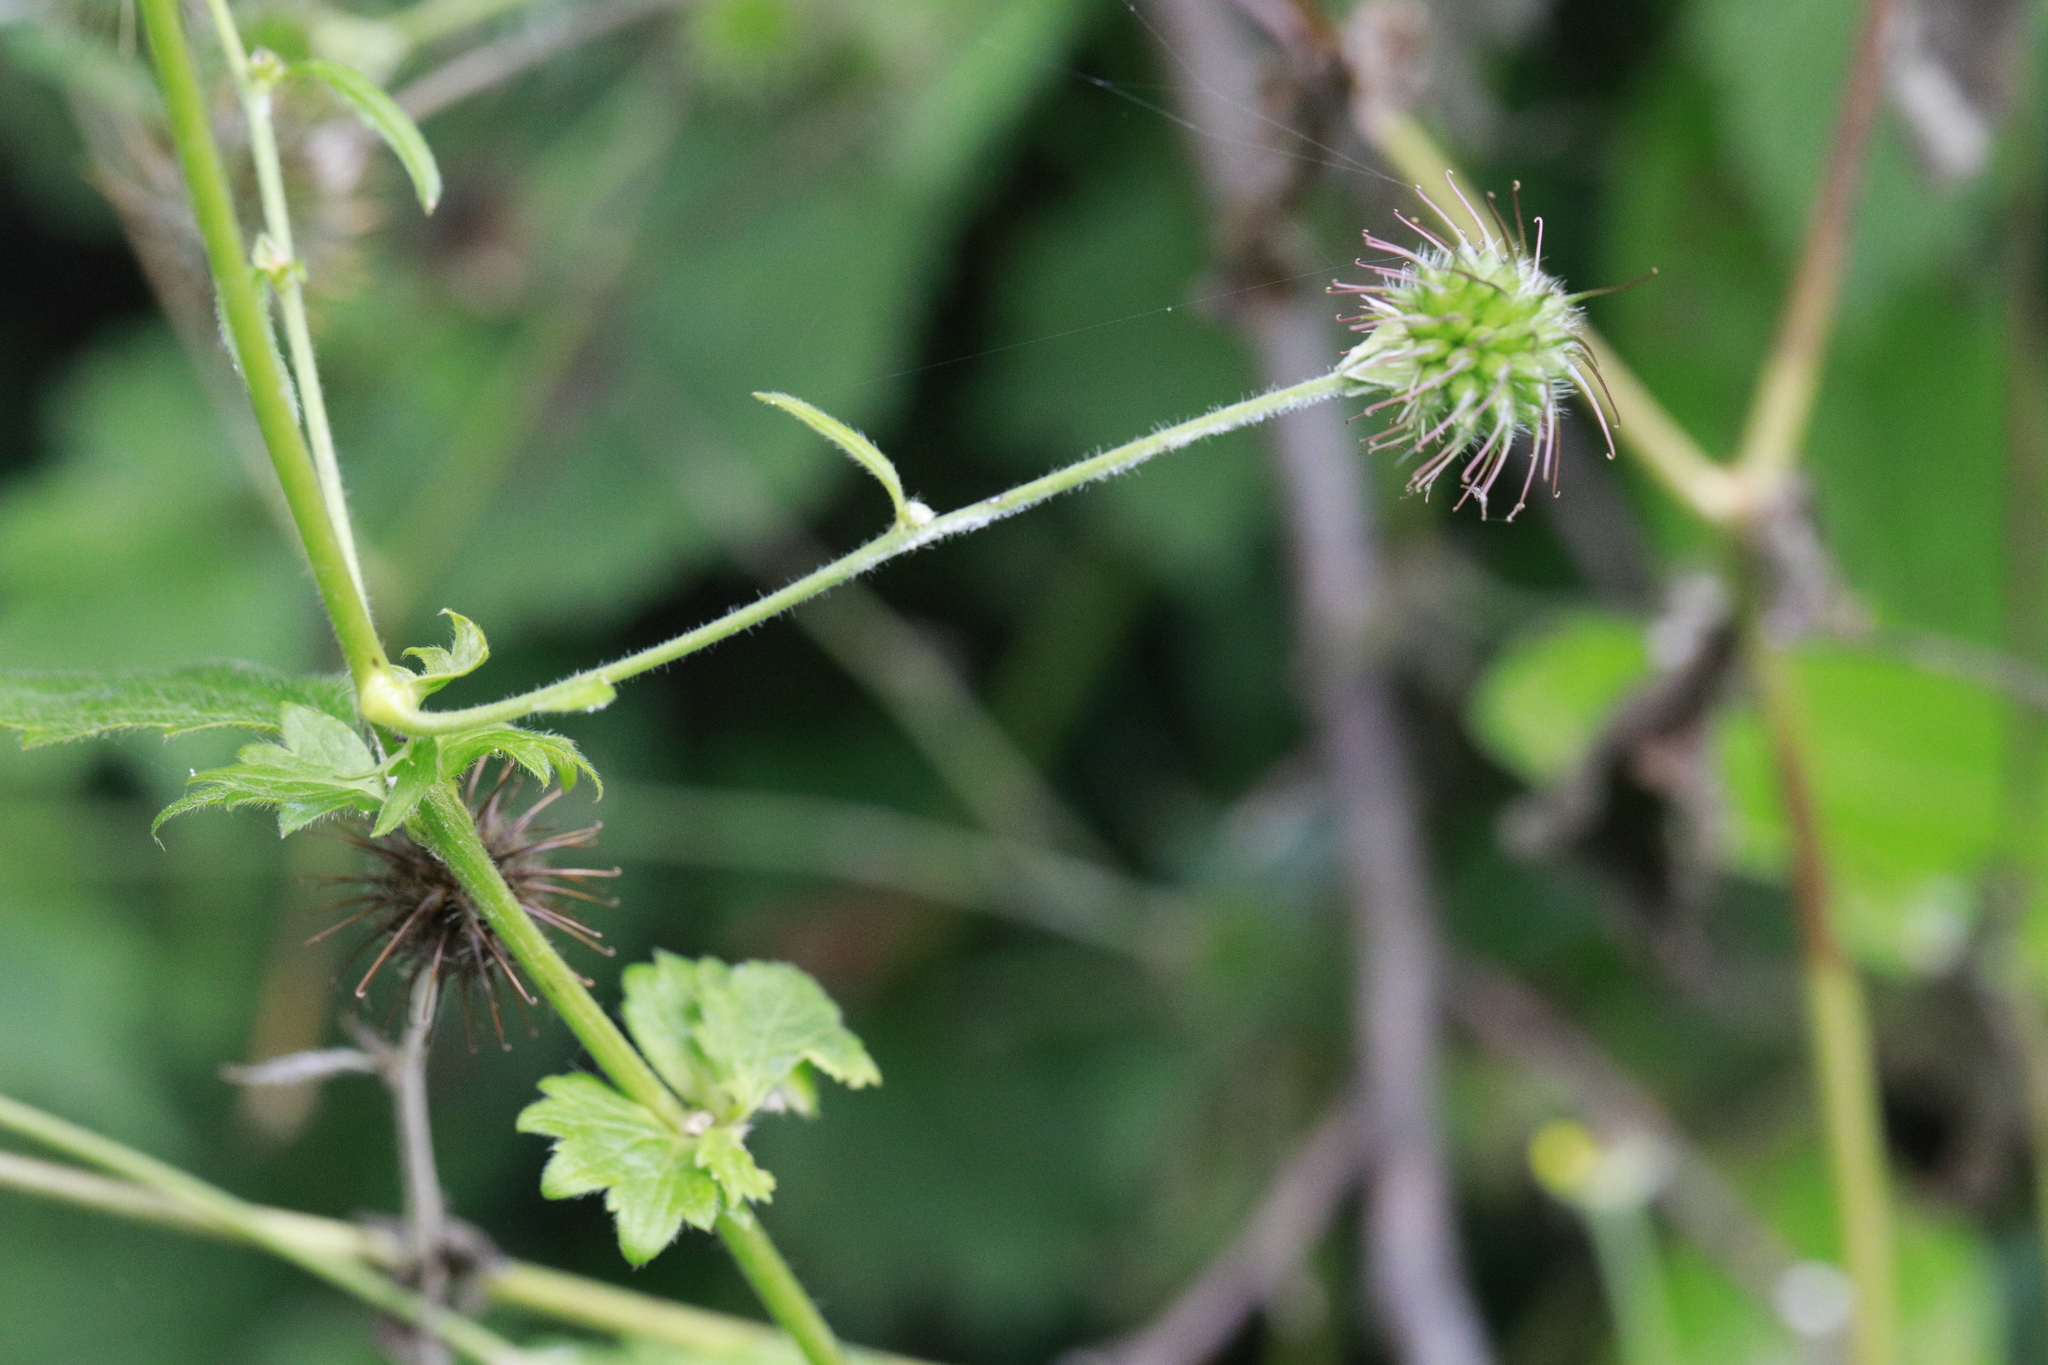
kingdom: Plantae
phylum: Tracheophyta
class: Magnoliopsida
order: Rosales
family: Rosaceae
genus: Geum
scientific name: Geum urbanum
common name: Wood avens
